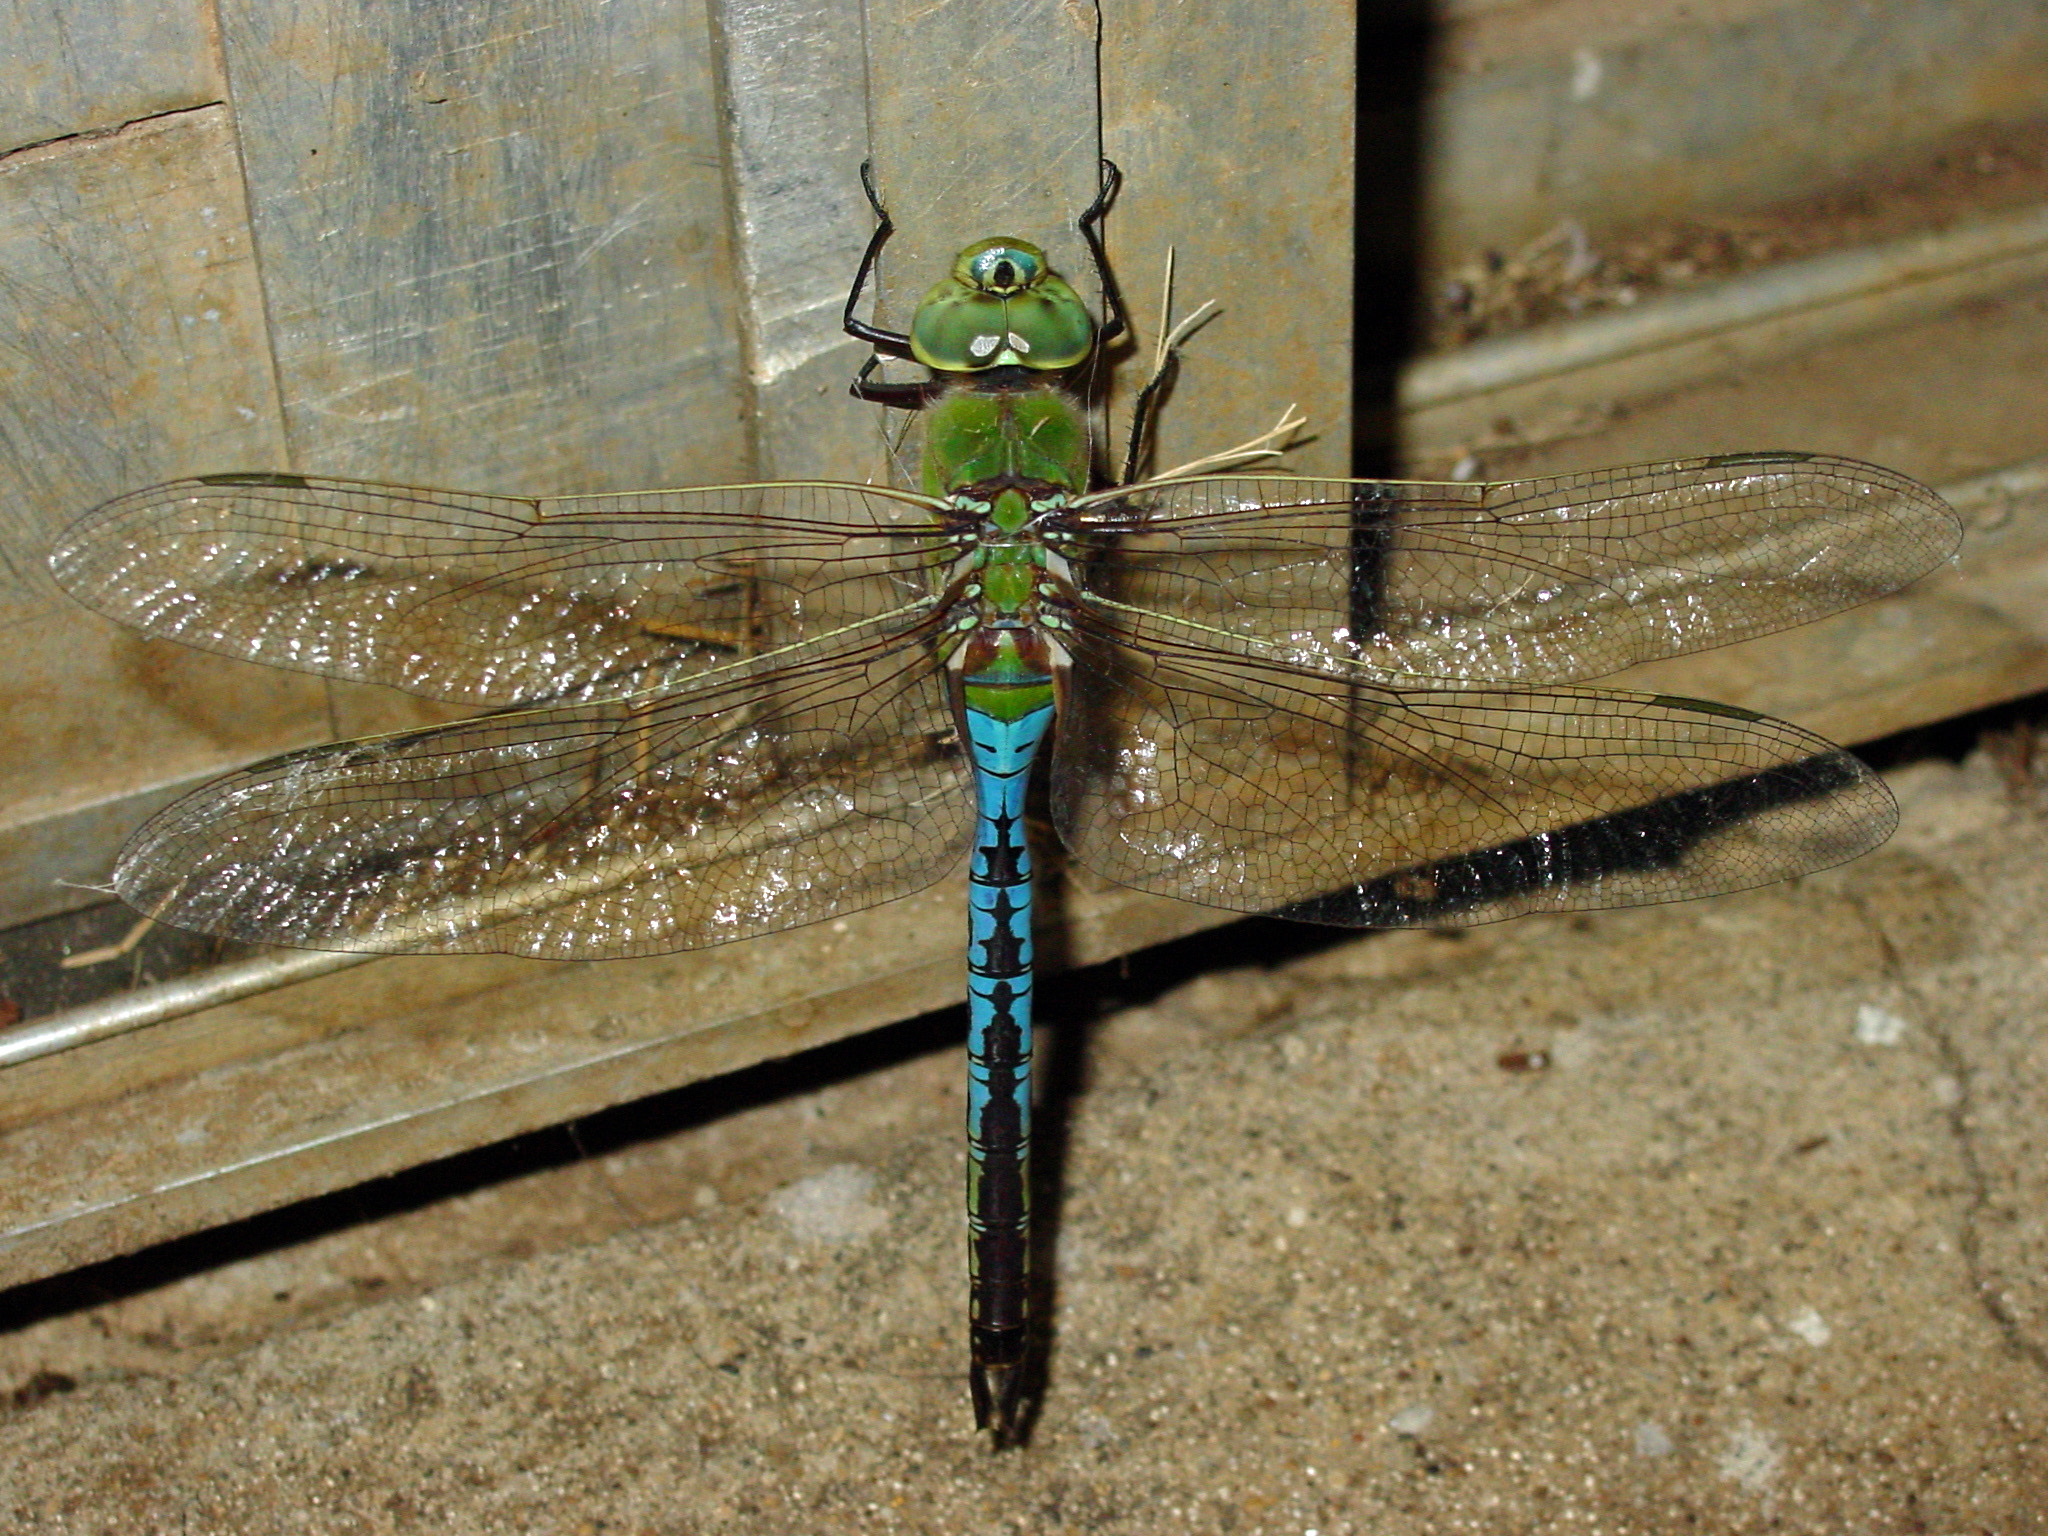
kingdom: Animalia
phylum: Arthropoda
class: Insecta
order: Odonata
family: Aeshnidae
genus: Anax
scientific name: Anax junius
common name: Common green darner
